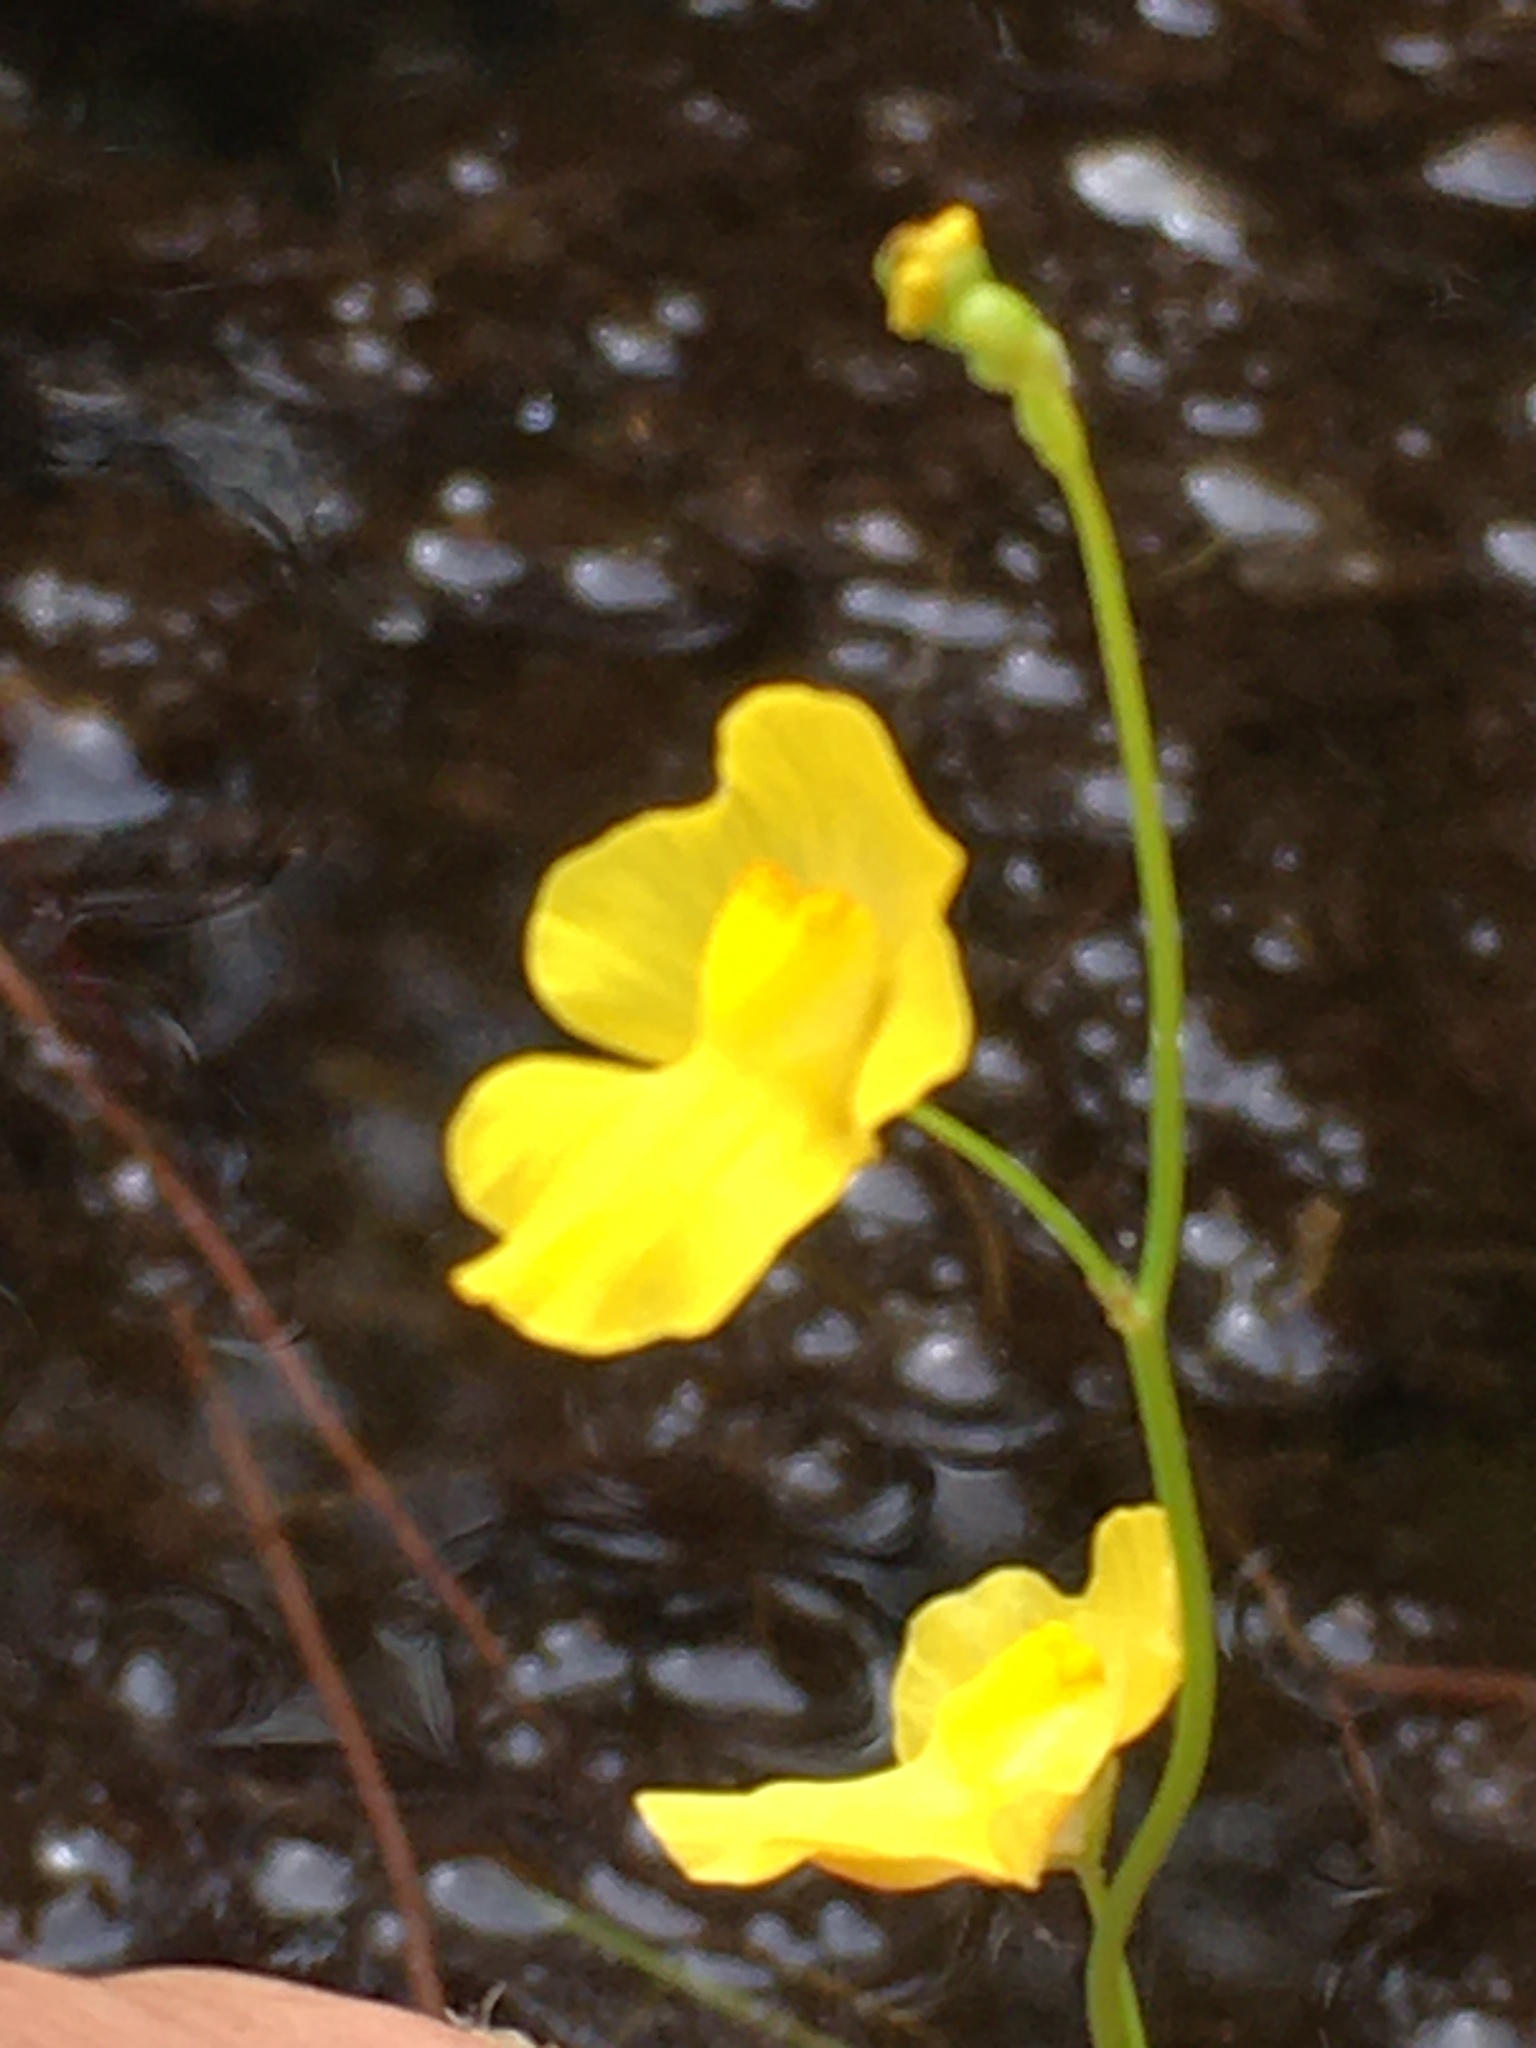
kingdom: Plantae
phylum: Tracheophyta
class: Magnoliopsida
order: Lamiales
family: Lentibulariaceae
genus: Utricularia
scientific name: Utricularia gibba
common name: Humped bladderwort
